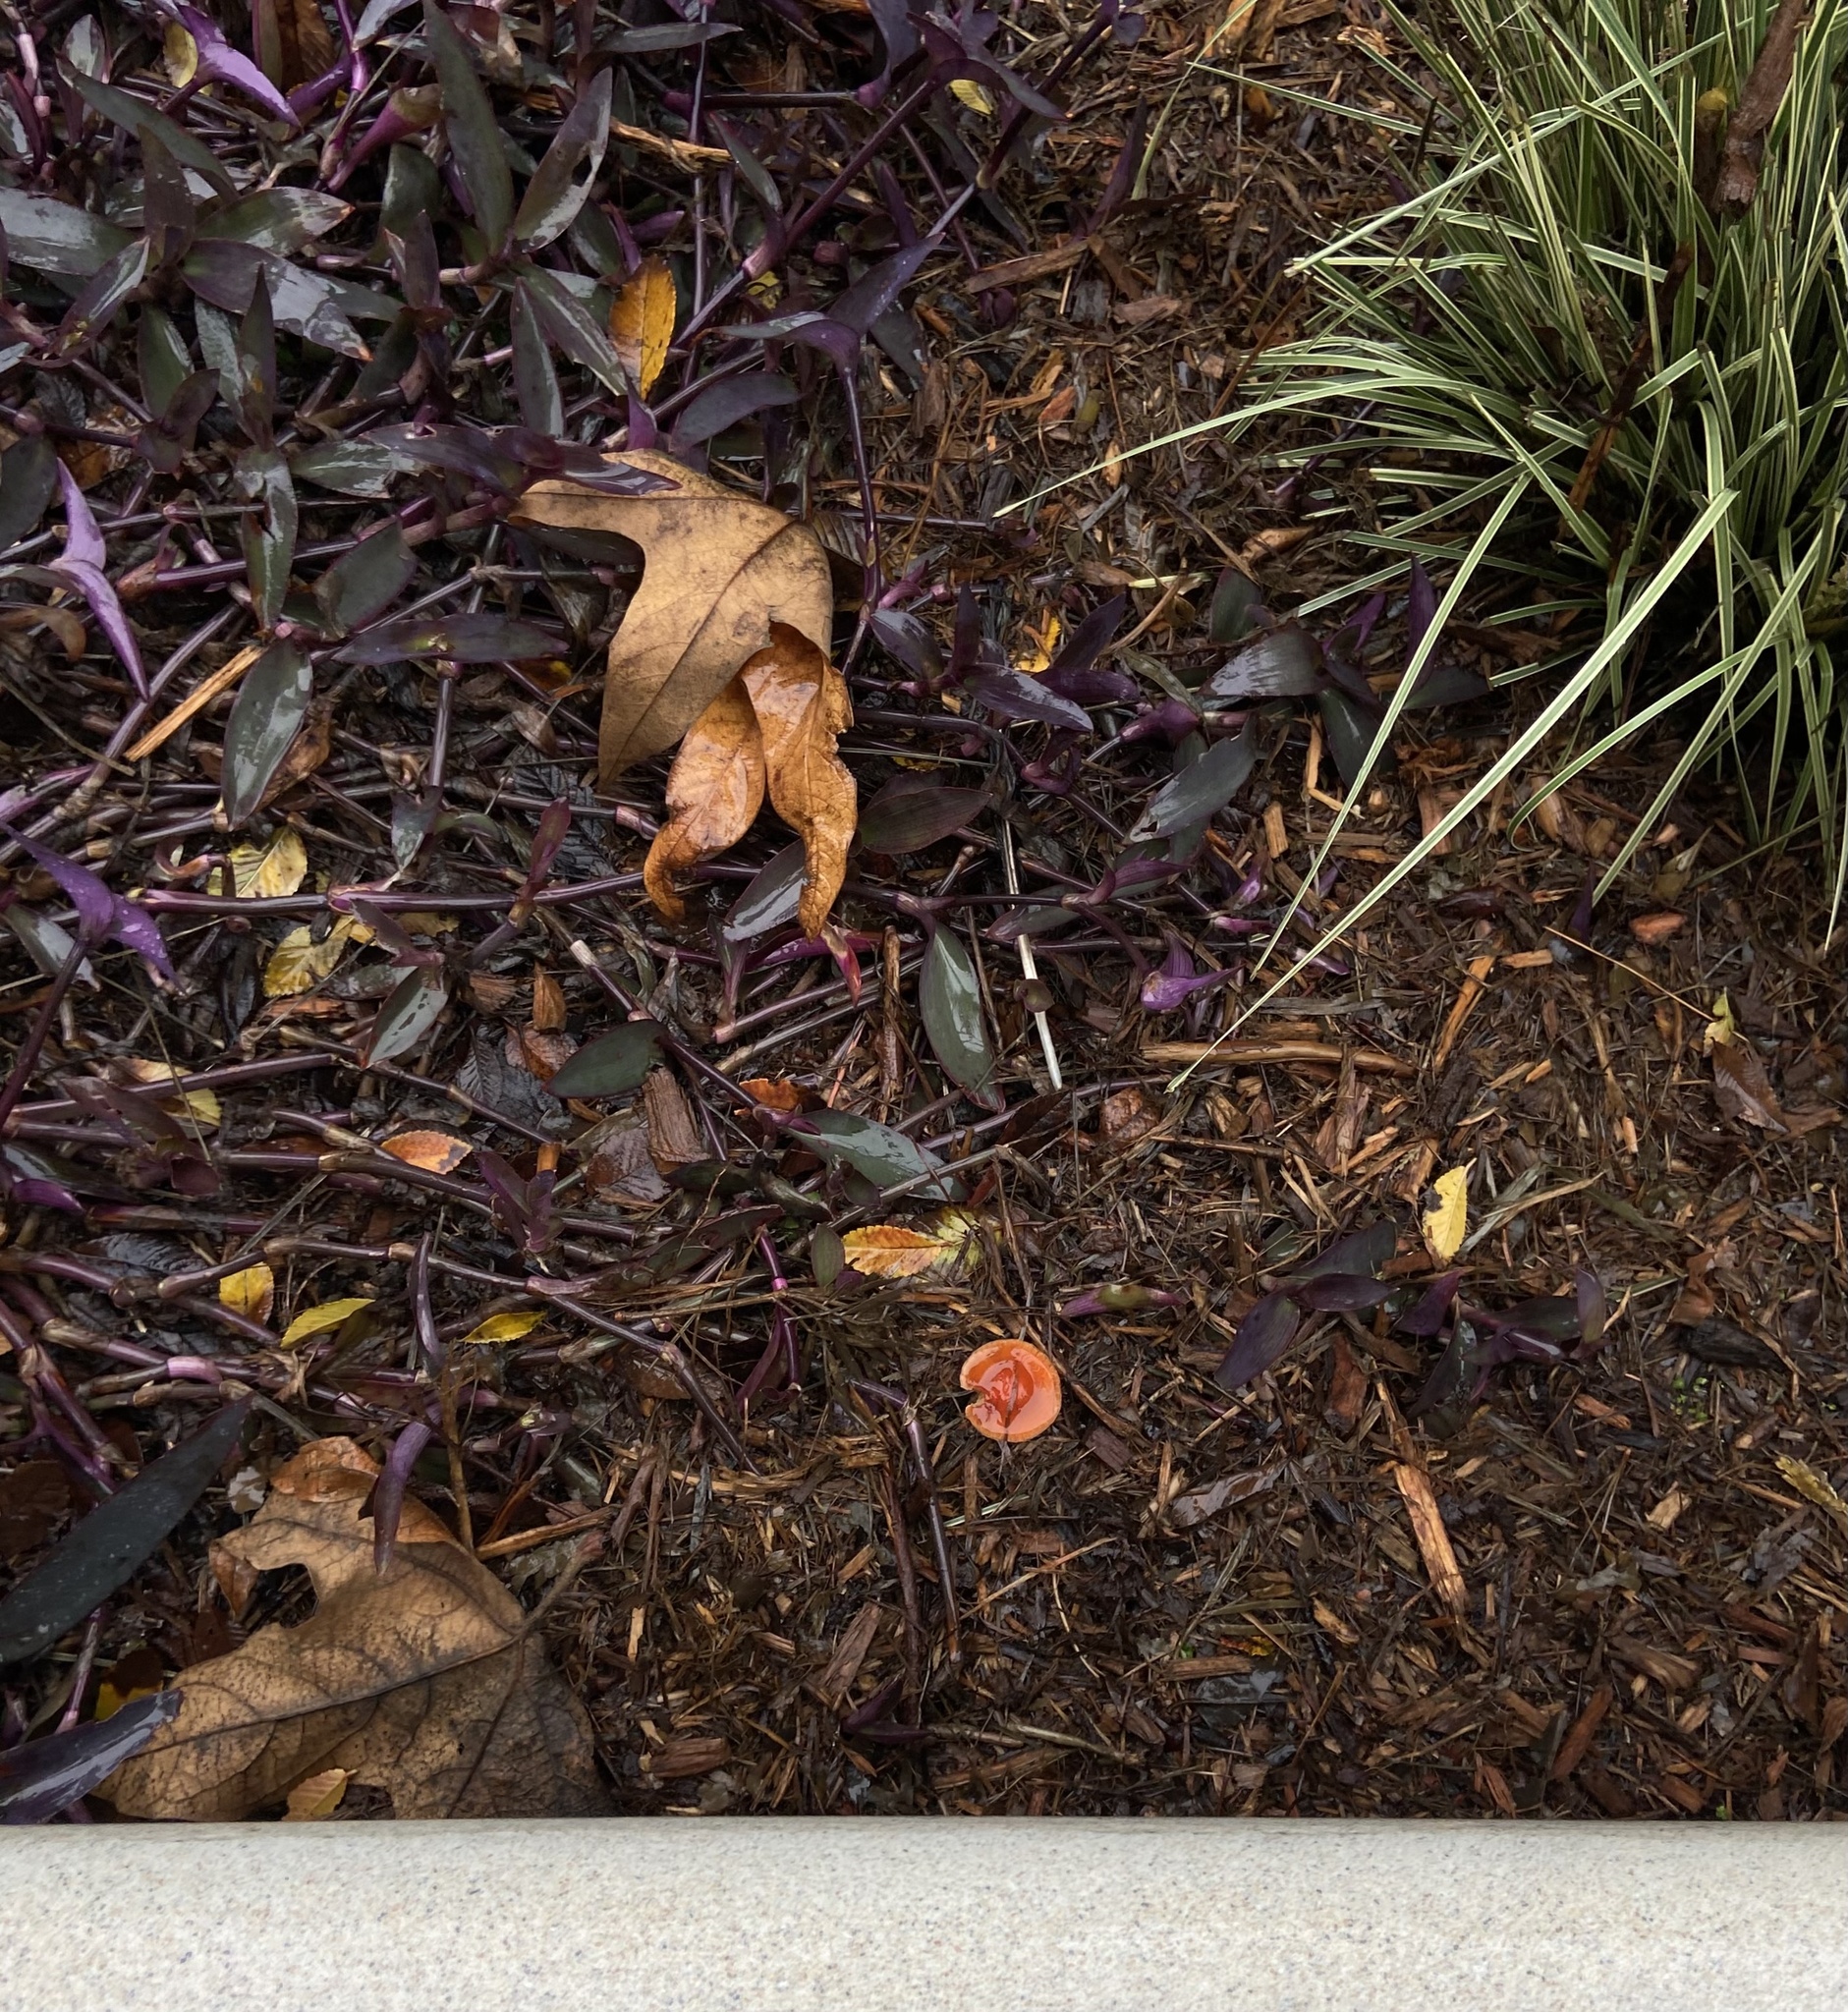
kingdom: Fungi
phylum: Basidiomycota
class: Agaricomycetes
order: Agaricales
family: Strophariaceae
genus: Leratiomyces
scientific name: Leratiomyces ceres
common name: Redlead roundhead
